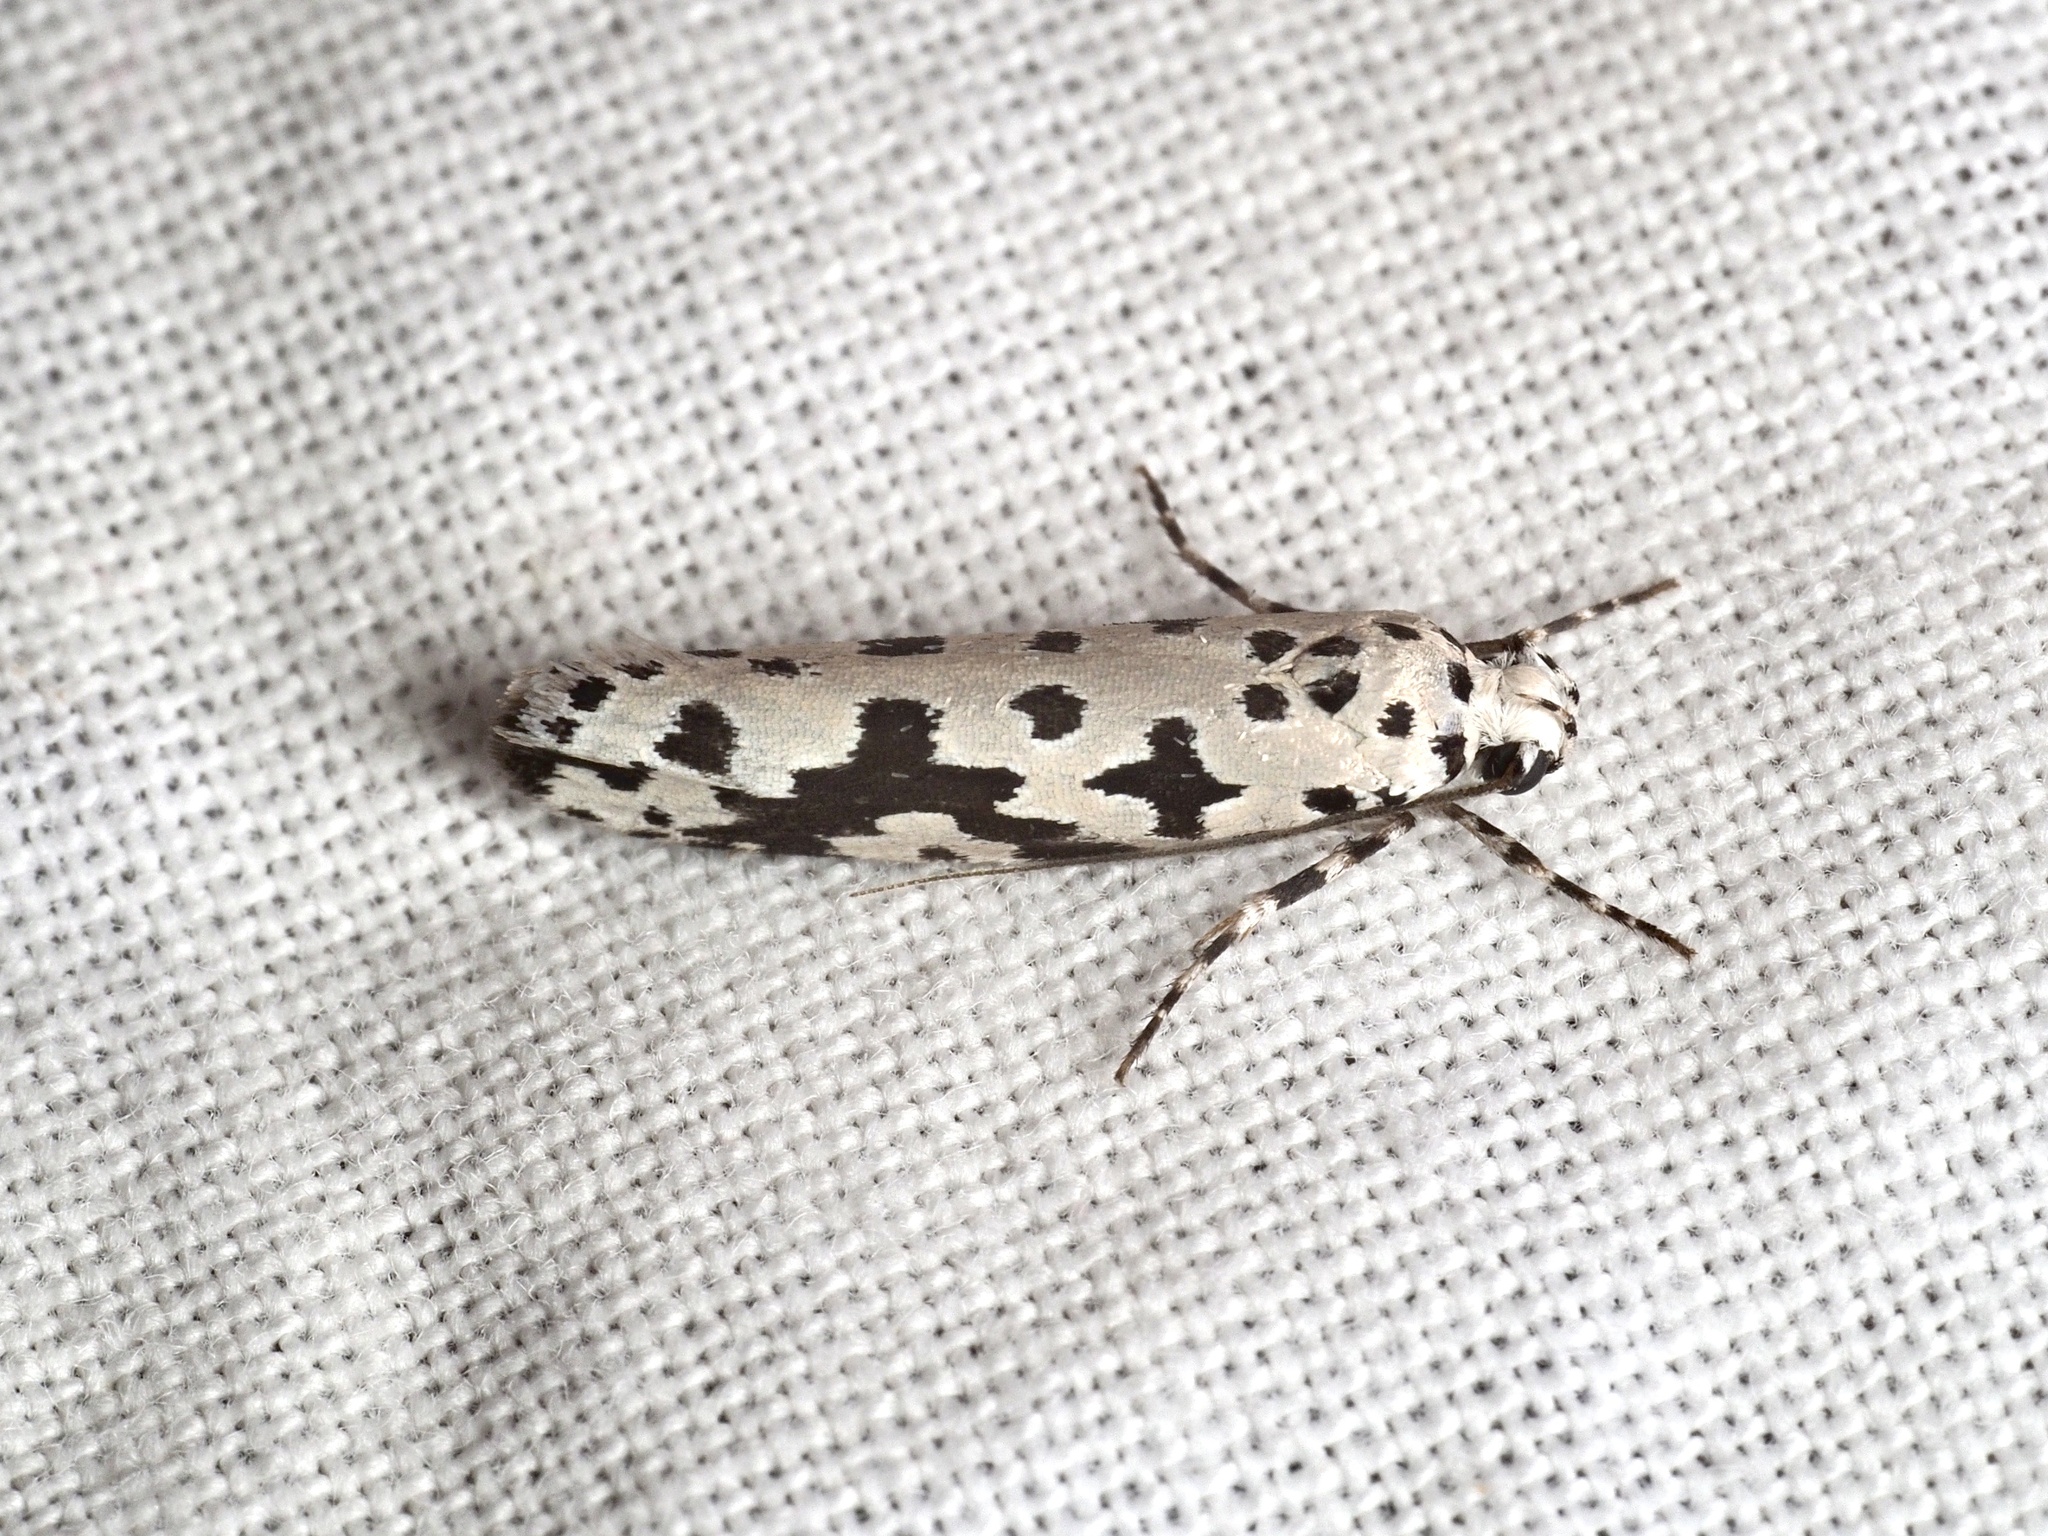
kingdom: Animalia
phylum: Arthropoda
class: Insecta
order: Lepidoptera
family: Ethmiidae
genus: Ethmia
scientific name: Ethmia sabiella
